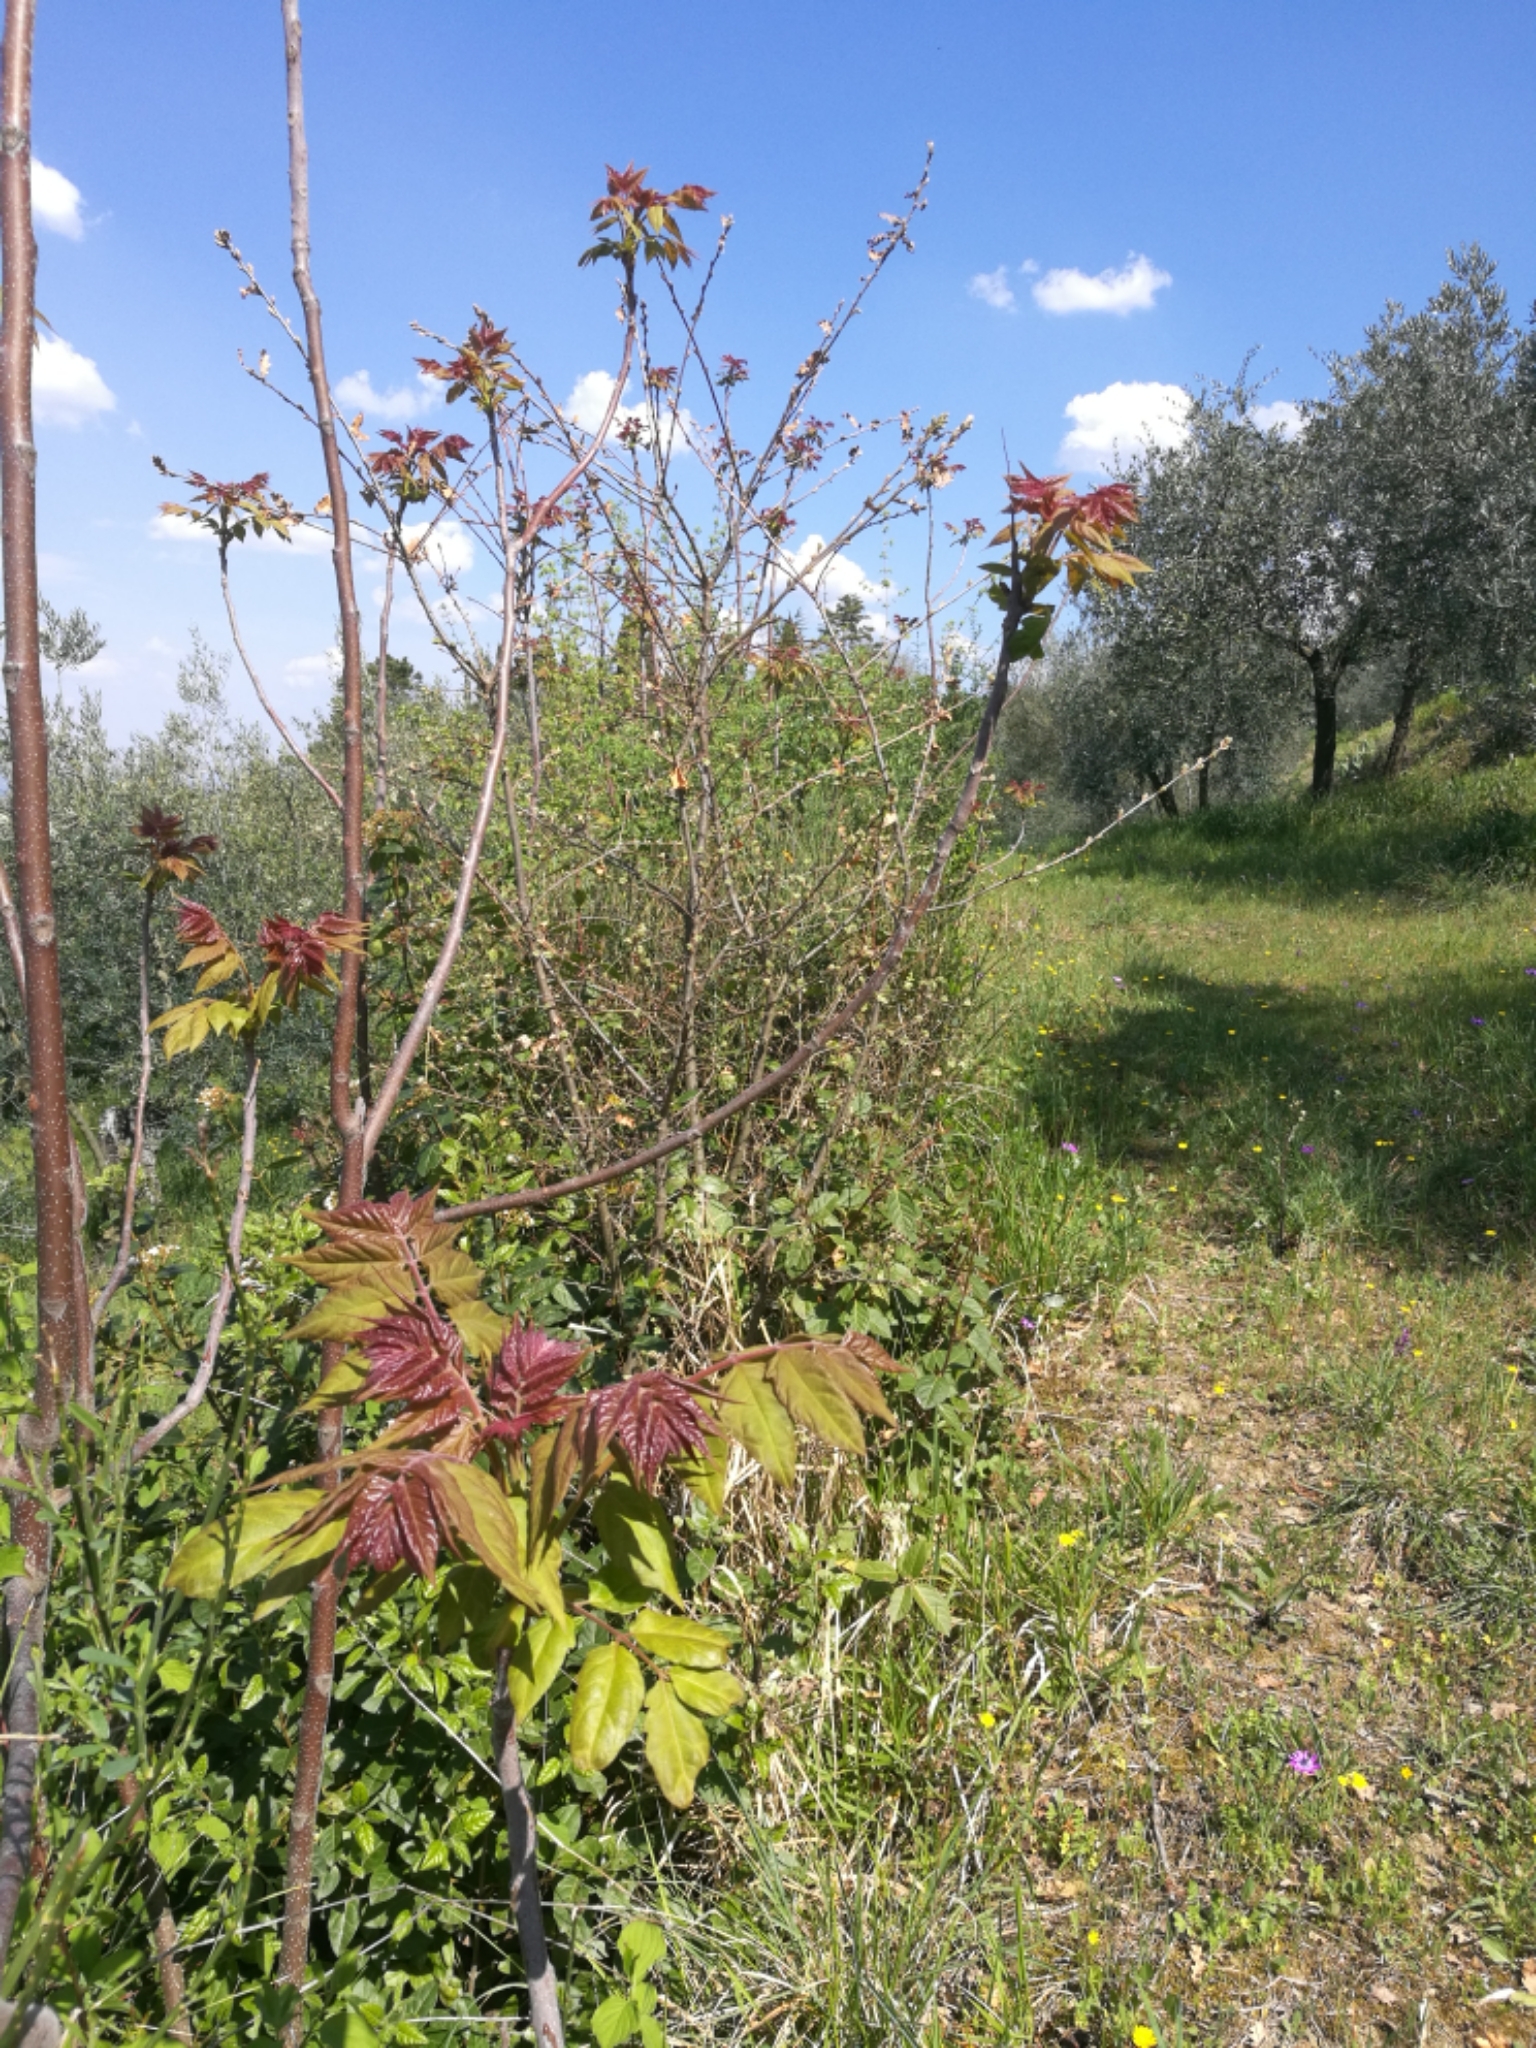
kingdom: Plantae
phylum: Tracheophyta
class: Magnoliopsida
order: Sapindales
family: Simaroubaceae
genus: Ailanthus
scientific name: Ailanthus altissima
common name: Tree-of-heaven
